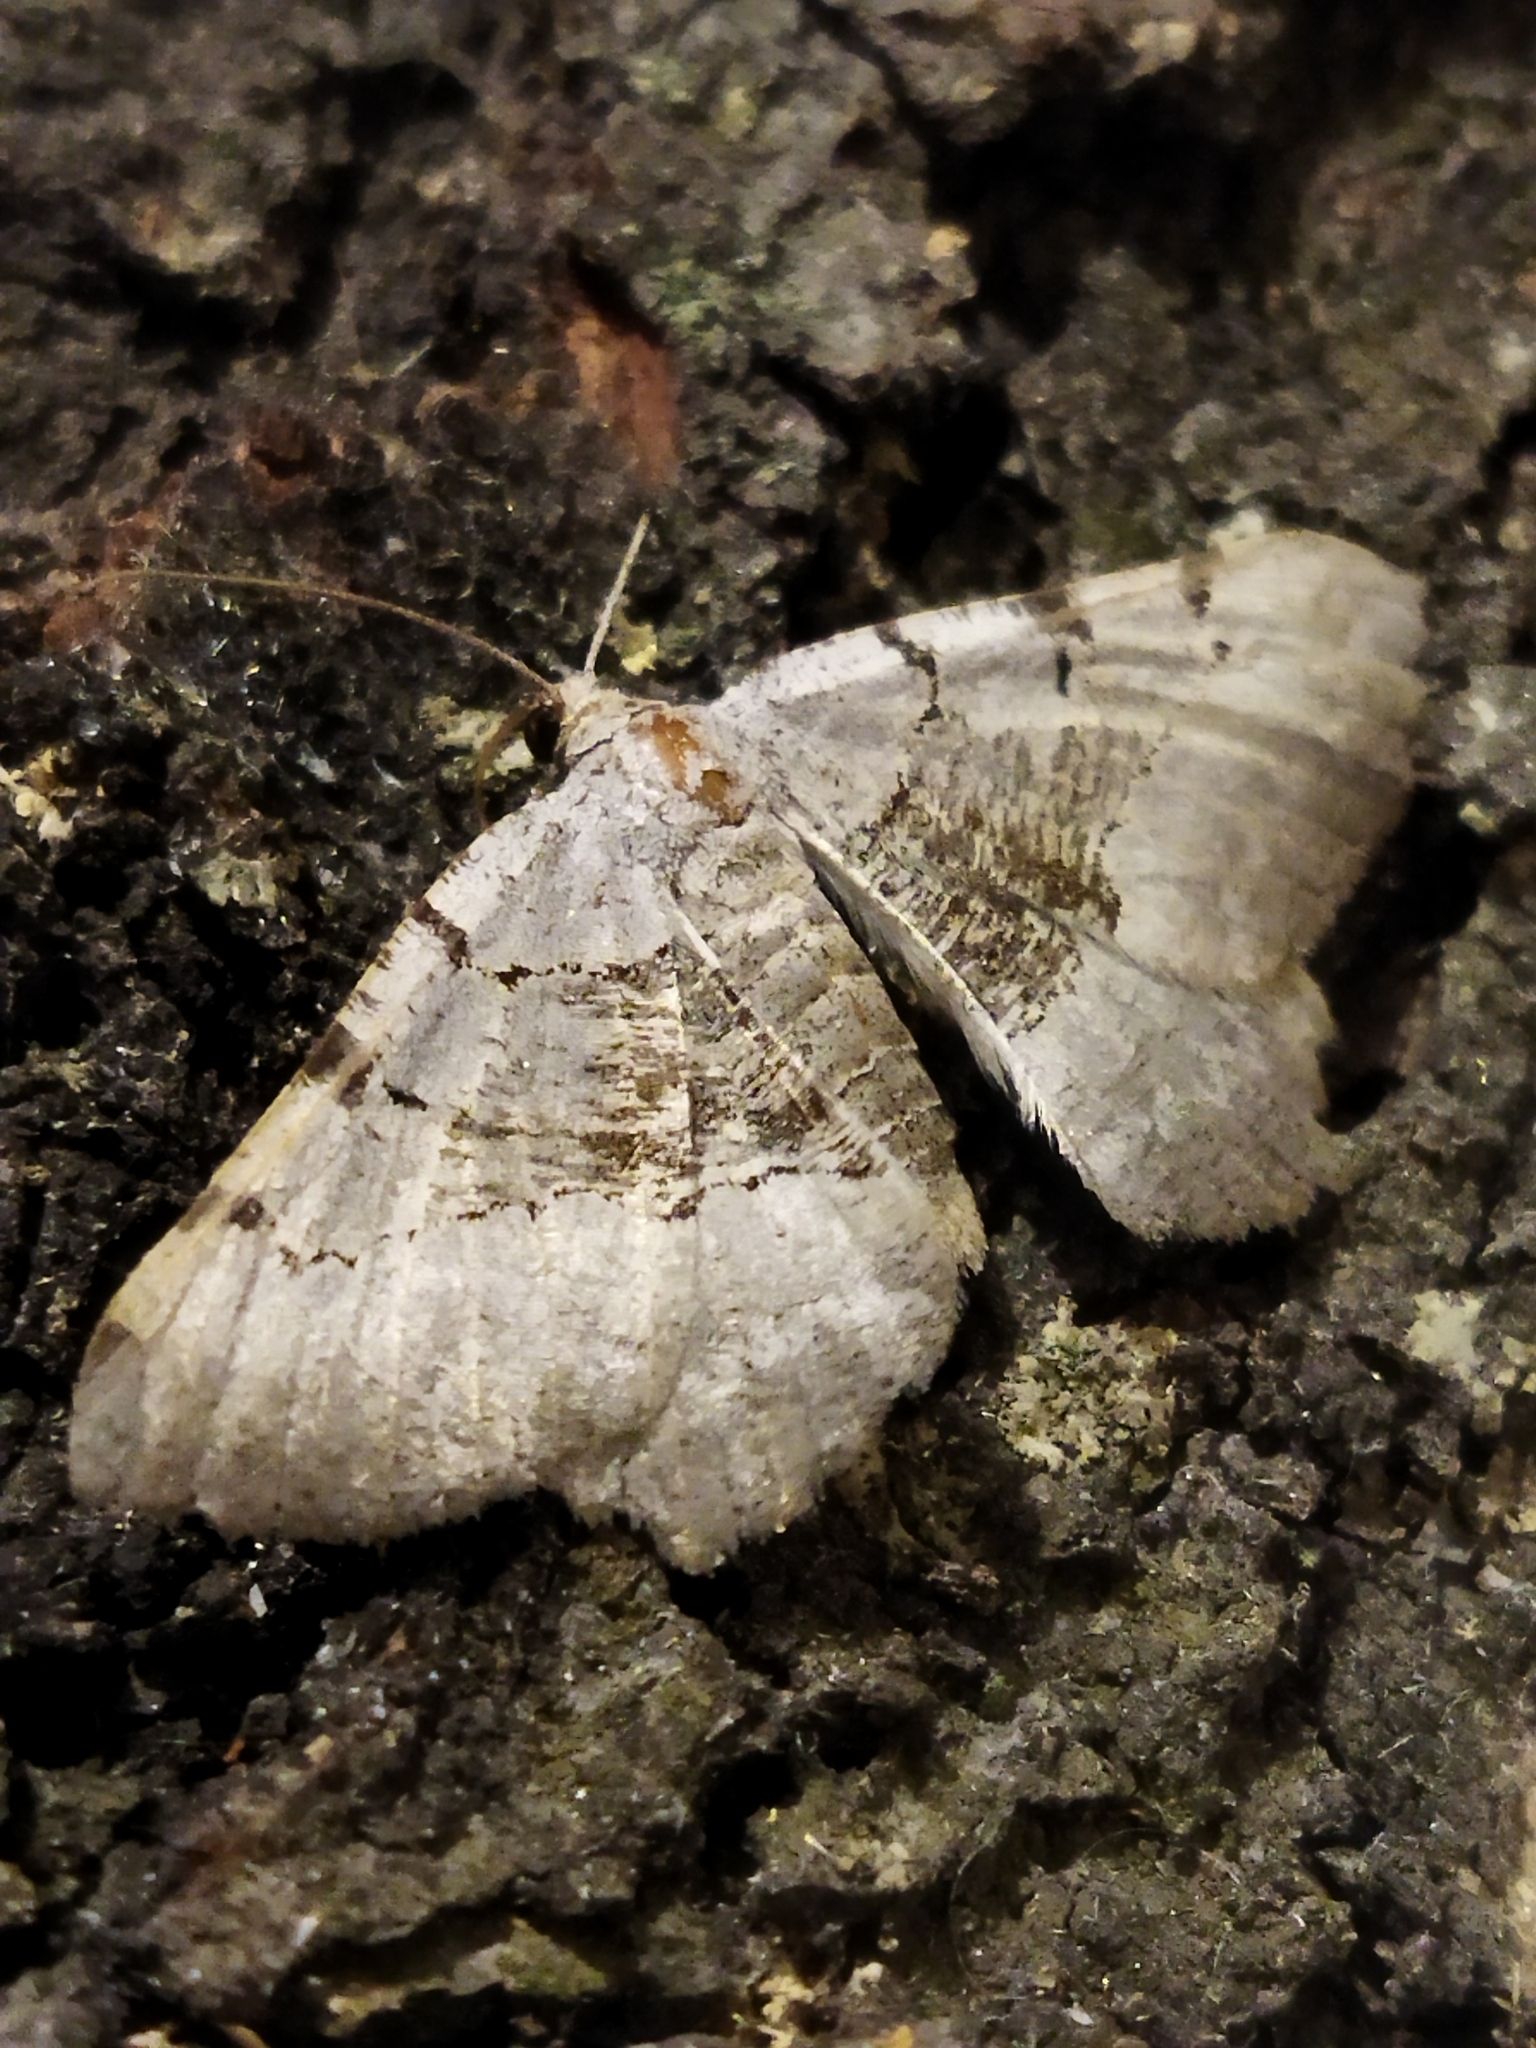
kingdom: Animalia
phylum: Arthropoda
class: Insecta
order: Lepidoptera
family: Geometridae
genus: Neognopharmia
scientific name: Neognopharmia stevenaria
